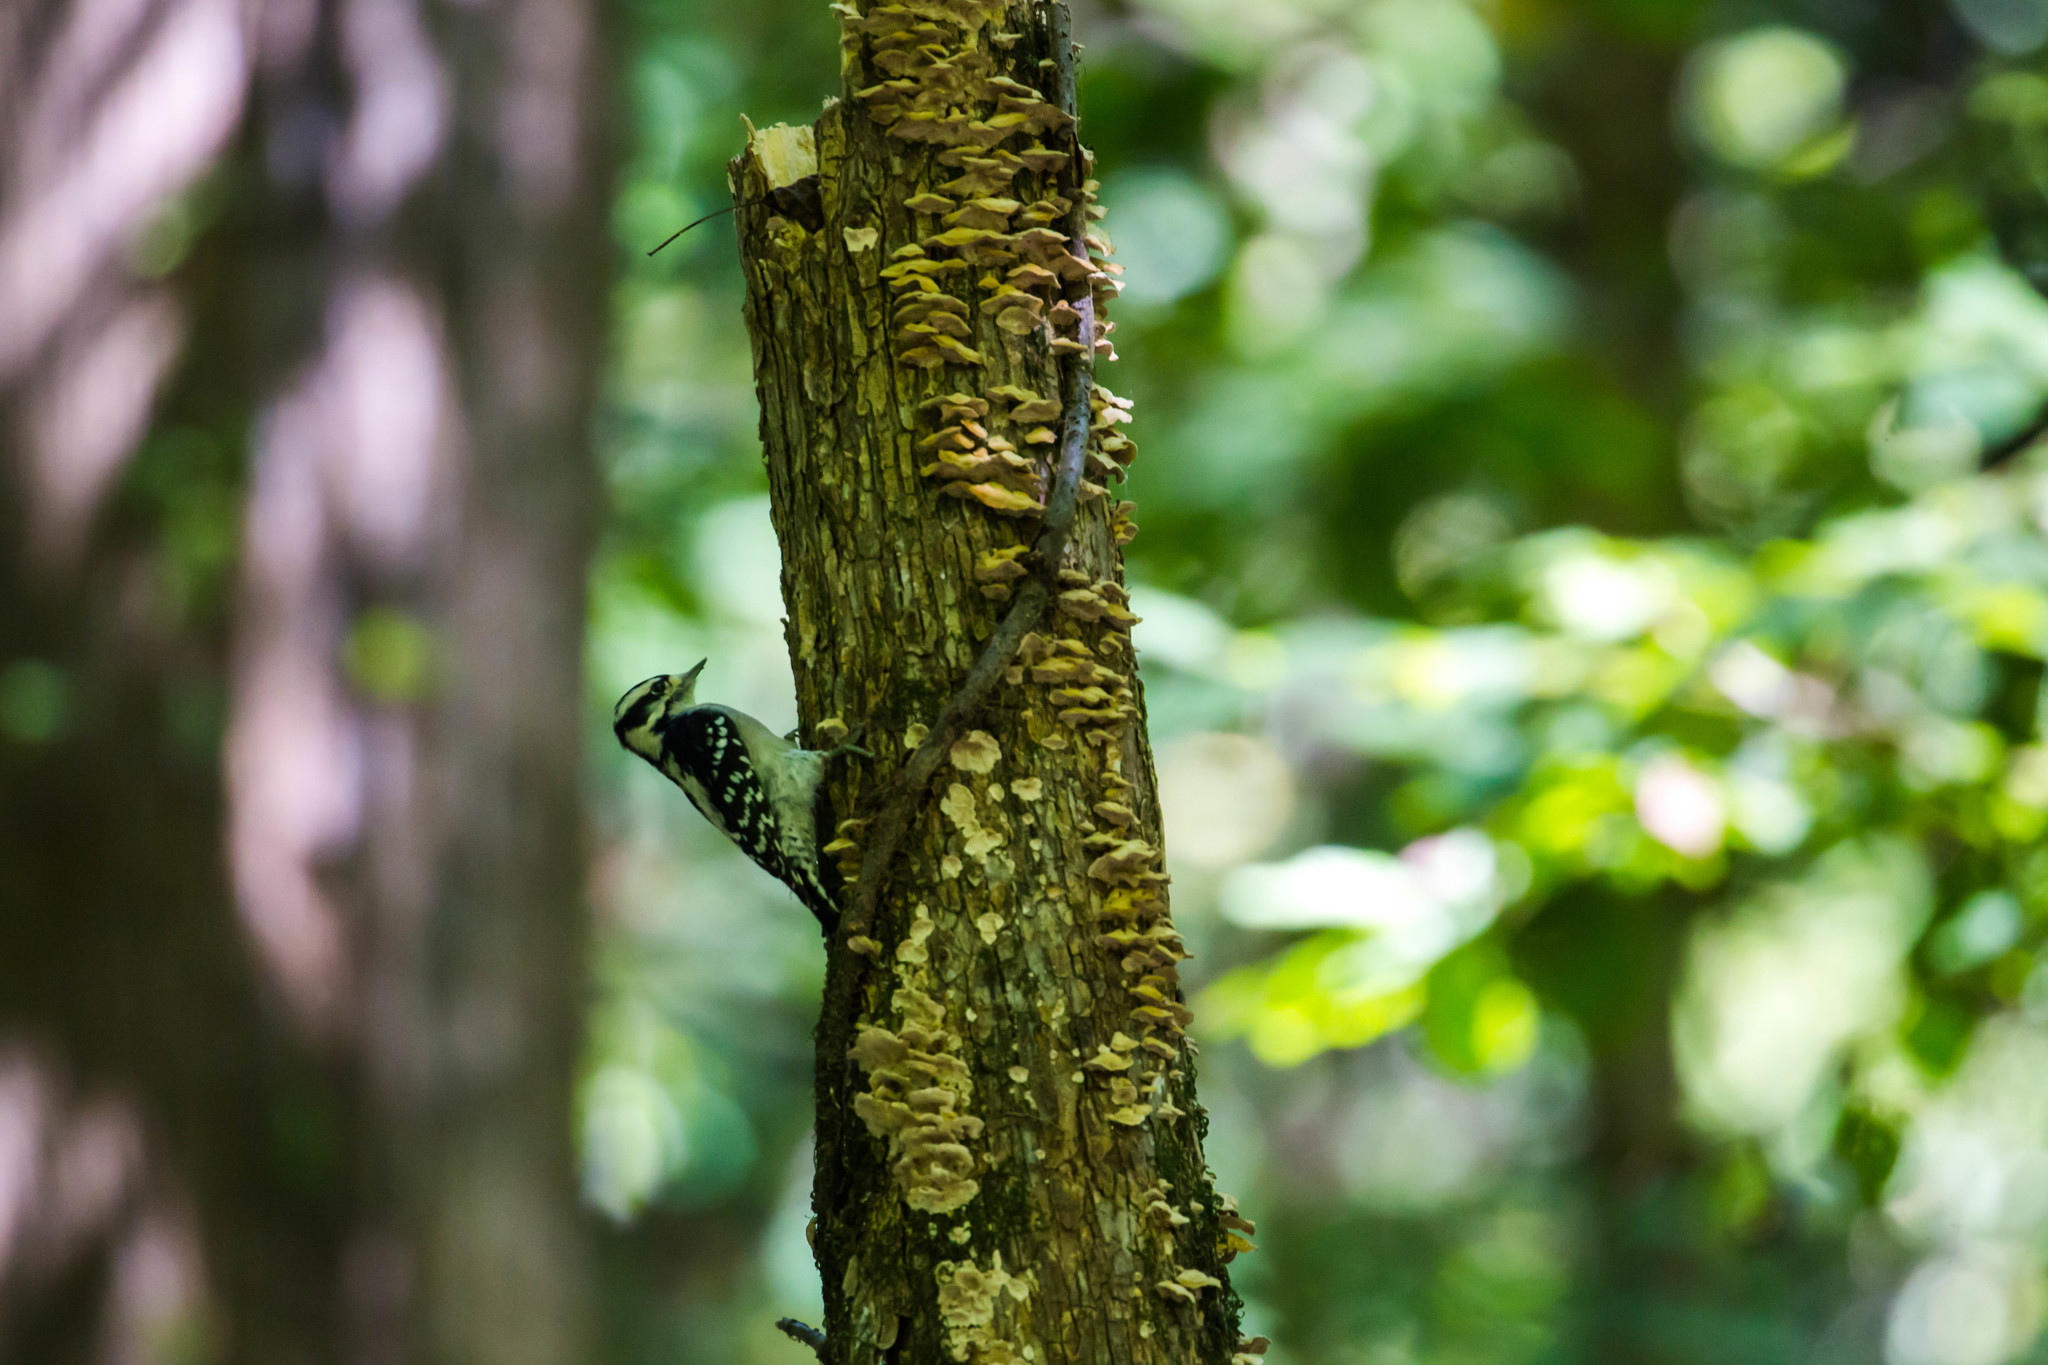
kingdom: Animalia
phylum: Chordata
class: Aves
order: Piciformes
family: Picidae
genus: Dryobates
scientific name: Dryobates pubescens
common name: Downy woodpecker
